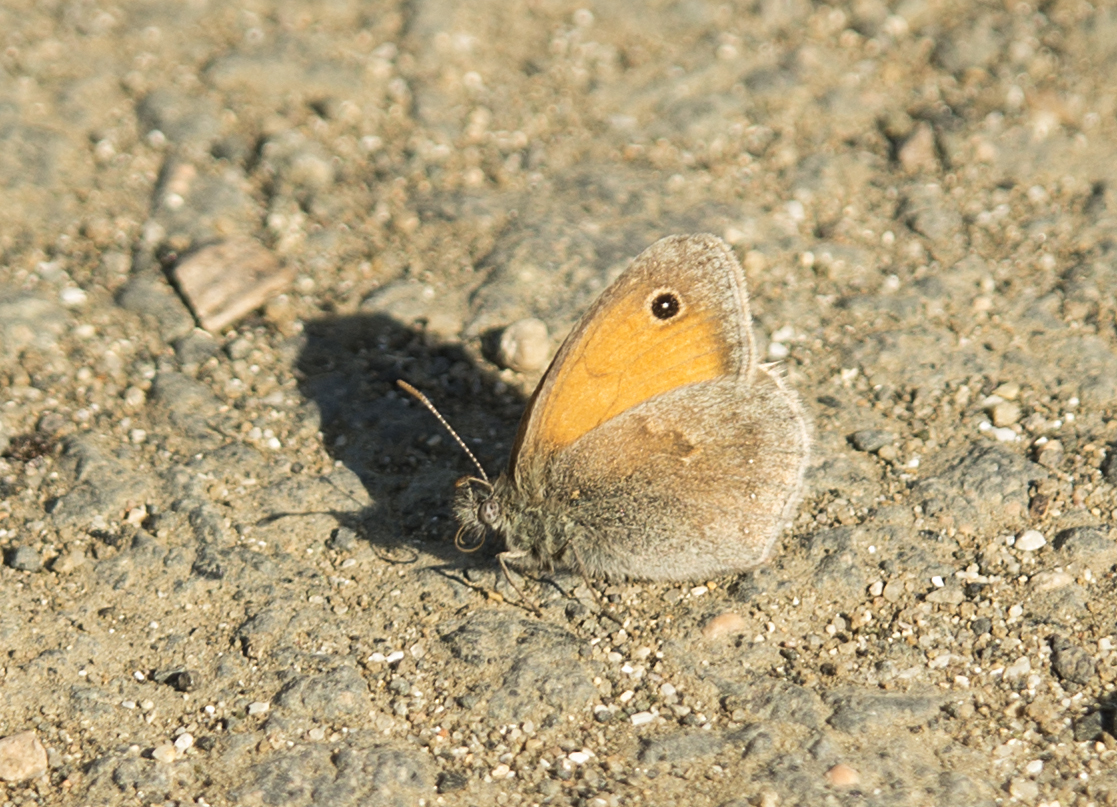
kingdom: Animalia
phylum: Arthropoda
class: Insecta
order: Lepidoptera
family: Nymphalidae
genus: Coenonympha
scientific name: Coenonympha pamphilus
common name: Small heath
